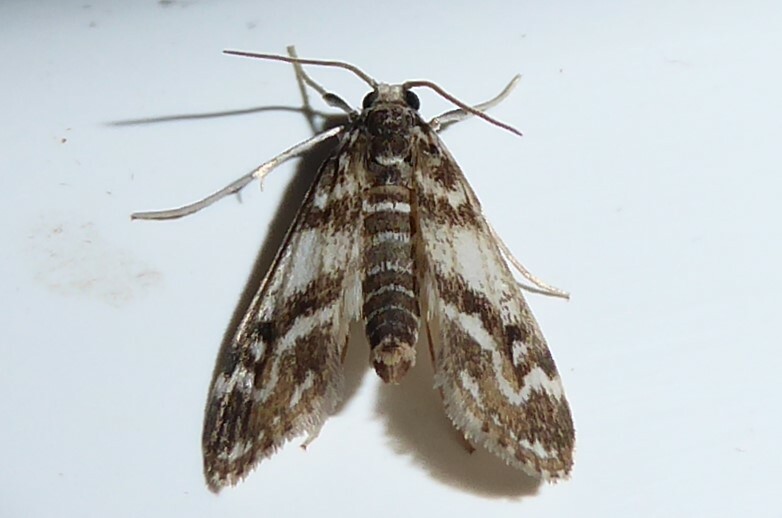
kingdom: Animalia
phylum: Arthropoda
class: Insecta
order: Lepidoptera
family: Crambidae
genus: Hygraula
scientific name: Hygraula nitens
